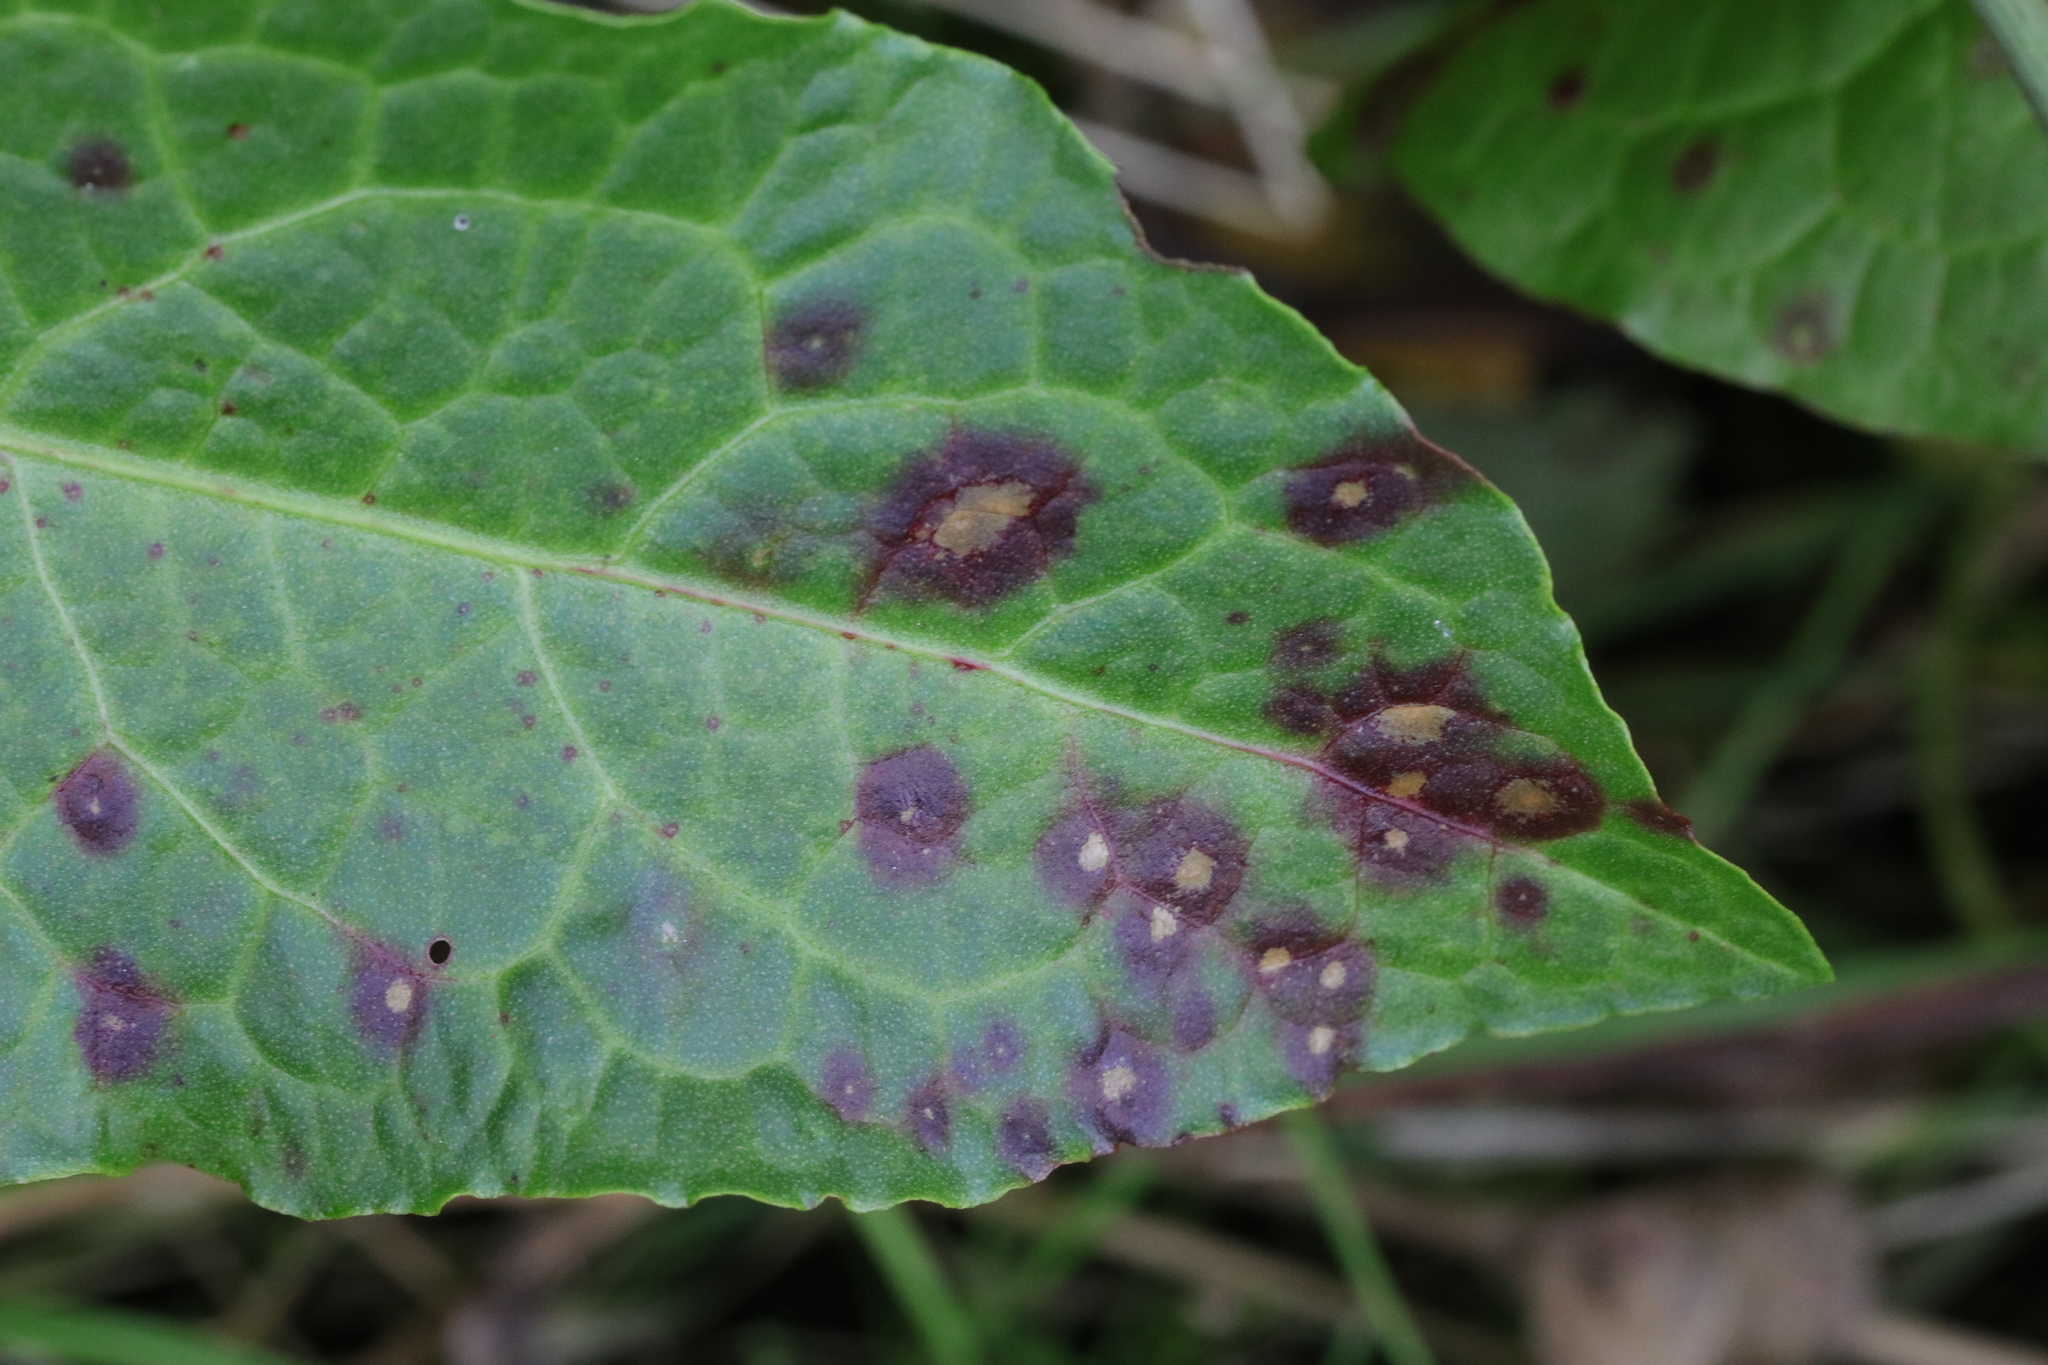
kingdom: Fungi
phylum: Ascomycota
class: Dothideomycetes
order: Mycosphaerellales
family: Mycosphaerellaceae
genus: Ramularia
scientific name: Ramularia rubella
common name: Red dock spot
